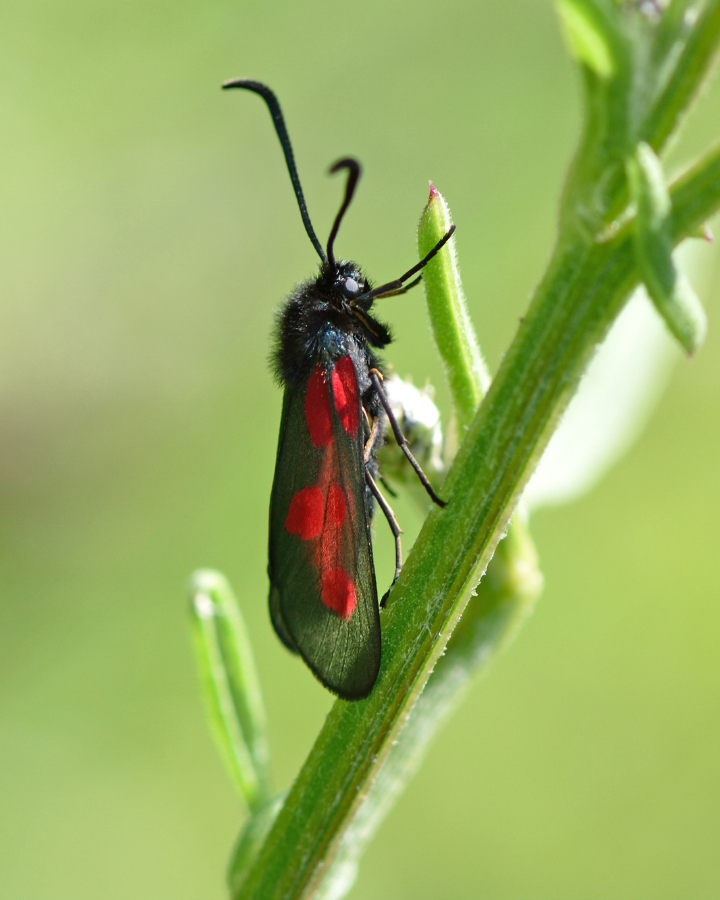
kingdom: Animalia
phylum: Arthropoda
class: Insecta
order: Lepidoptera
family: Zygaenidae
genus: Zygaena
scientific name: Zygaena viciae
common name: New forest burnet
